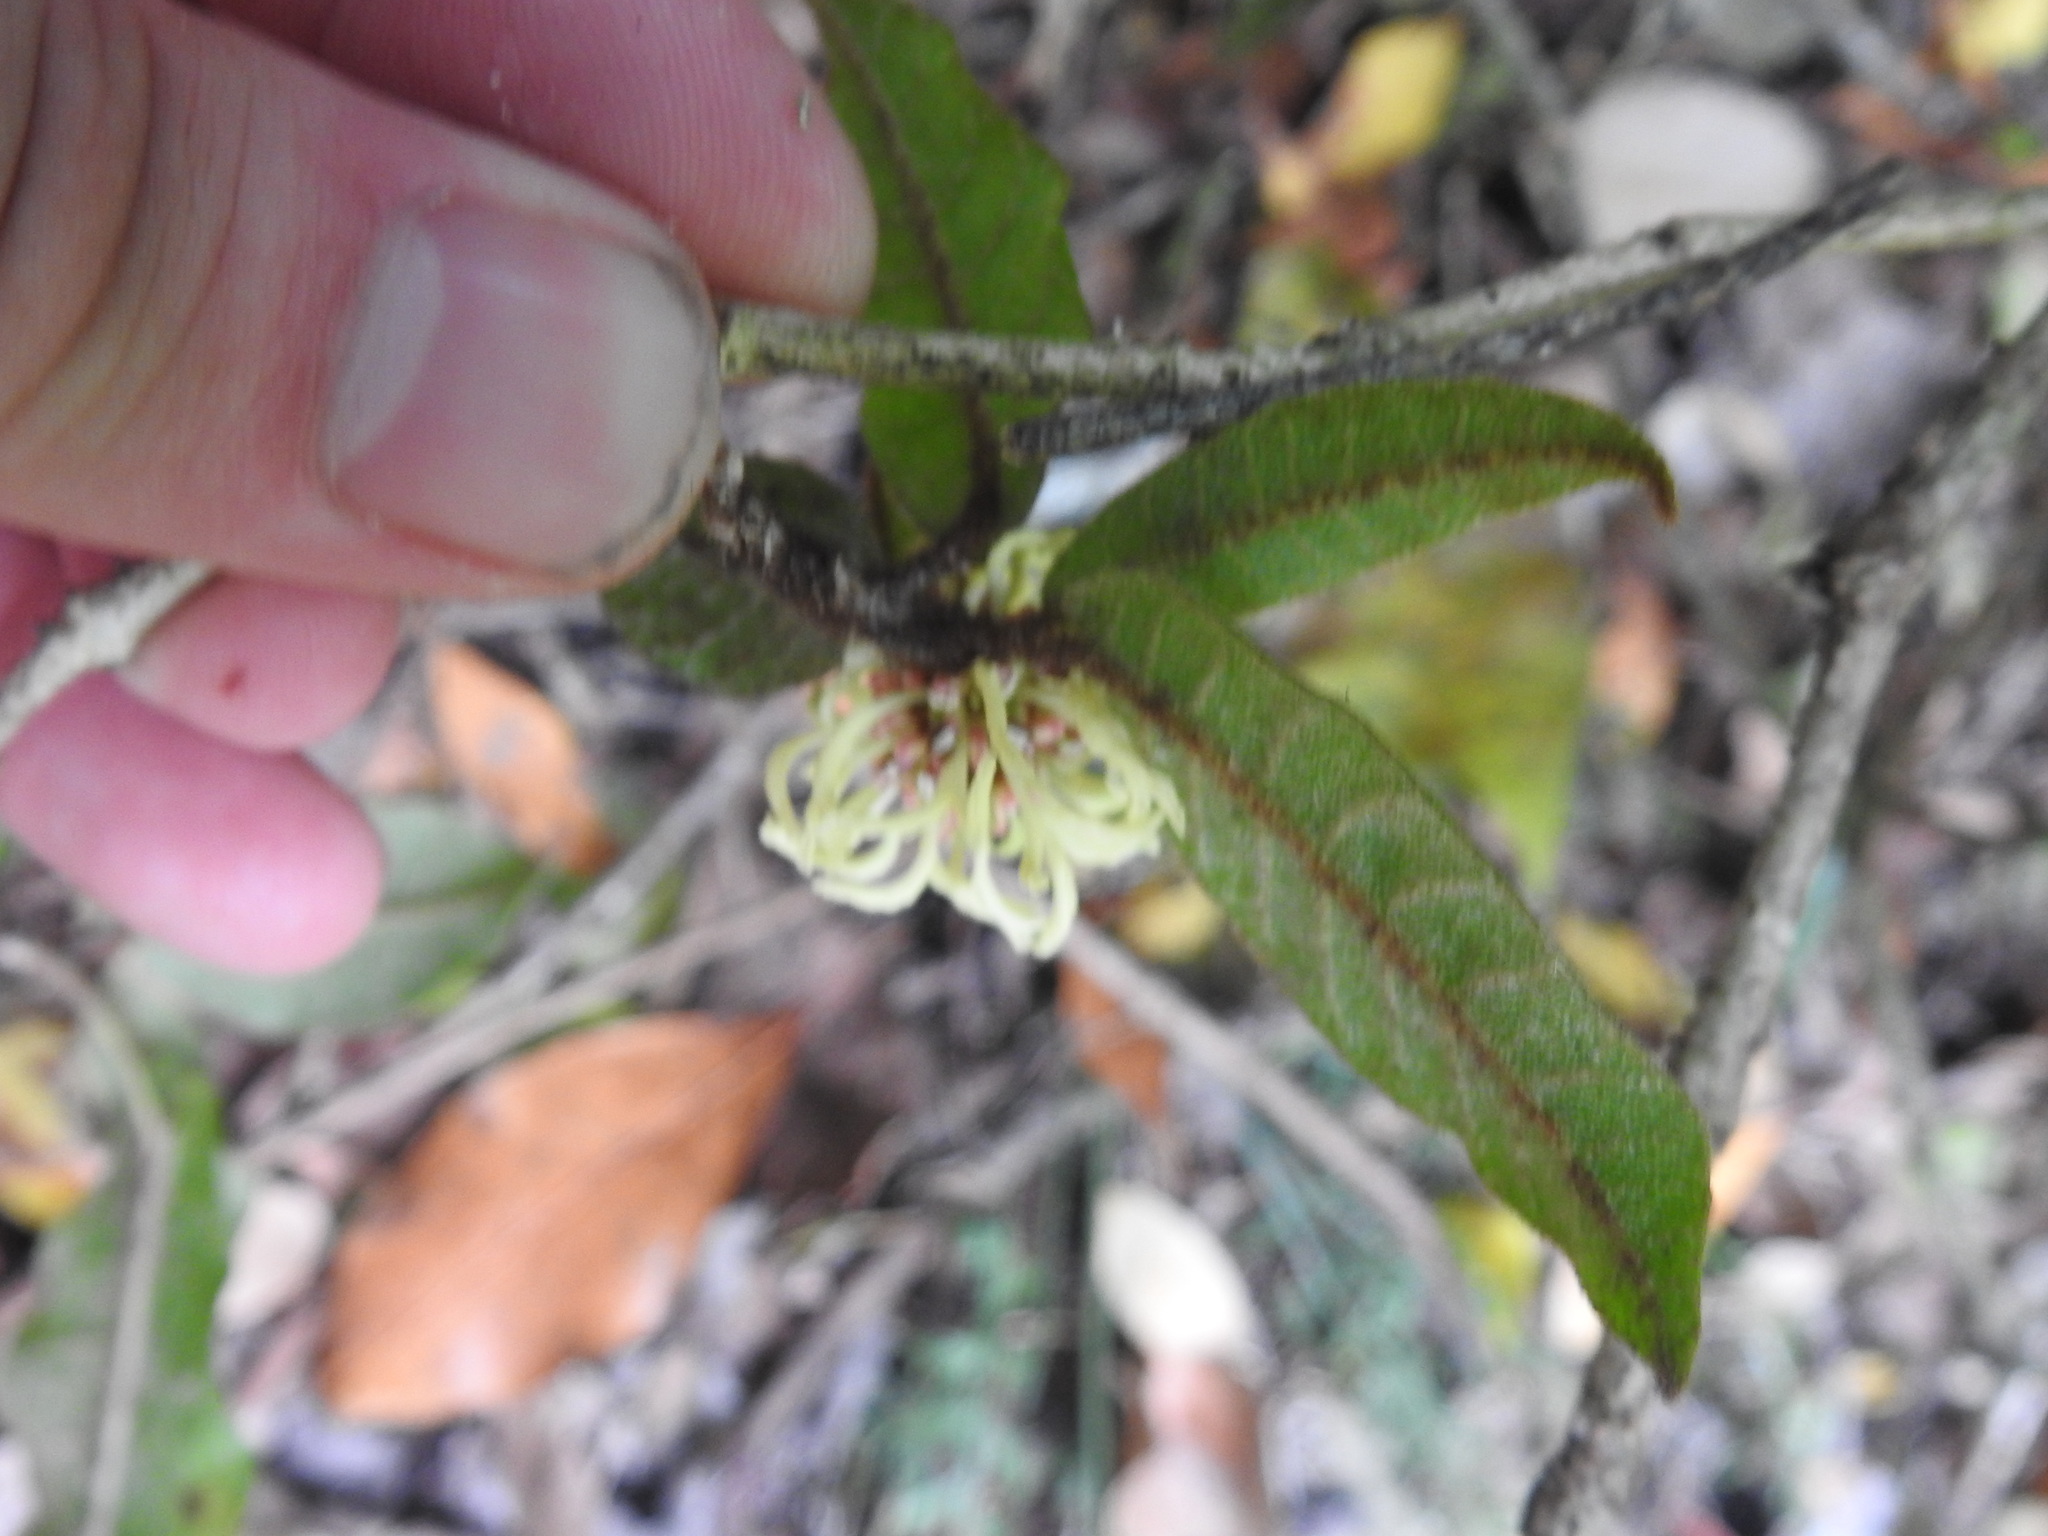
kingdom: Plantae
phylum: Tracheophyta
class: Magnoliopsida
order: Saxifragales
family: Hamamelidaceae
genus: Trichocladus
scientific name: Trichocladus crinitus
